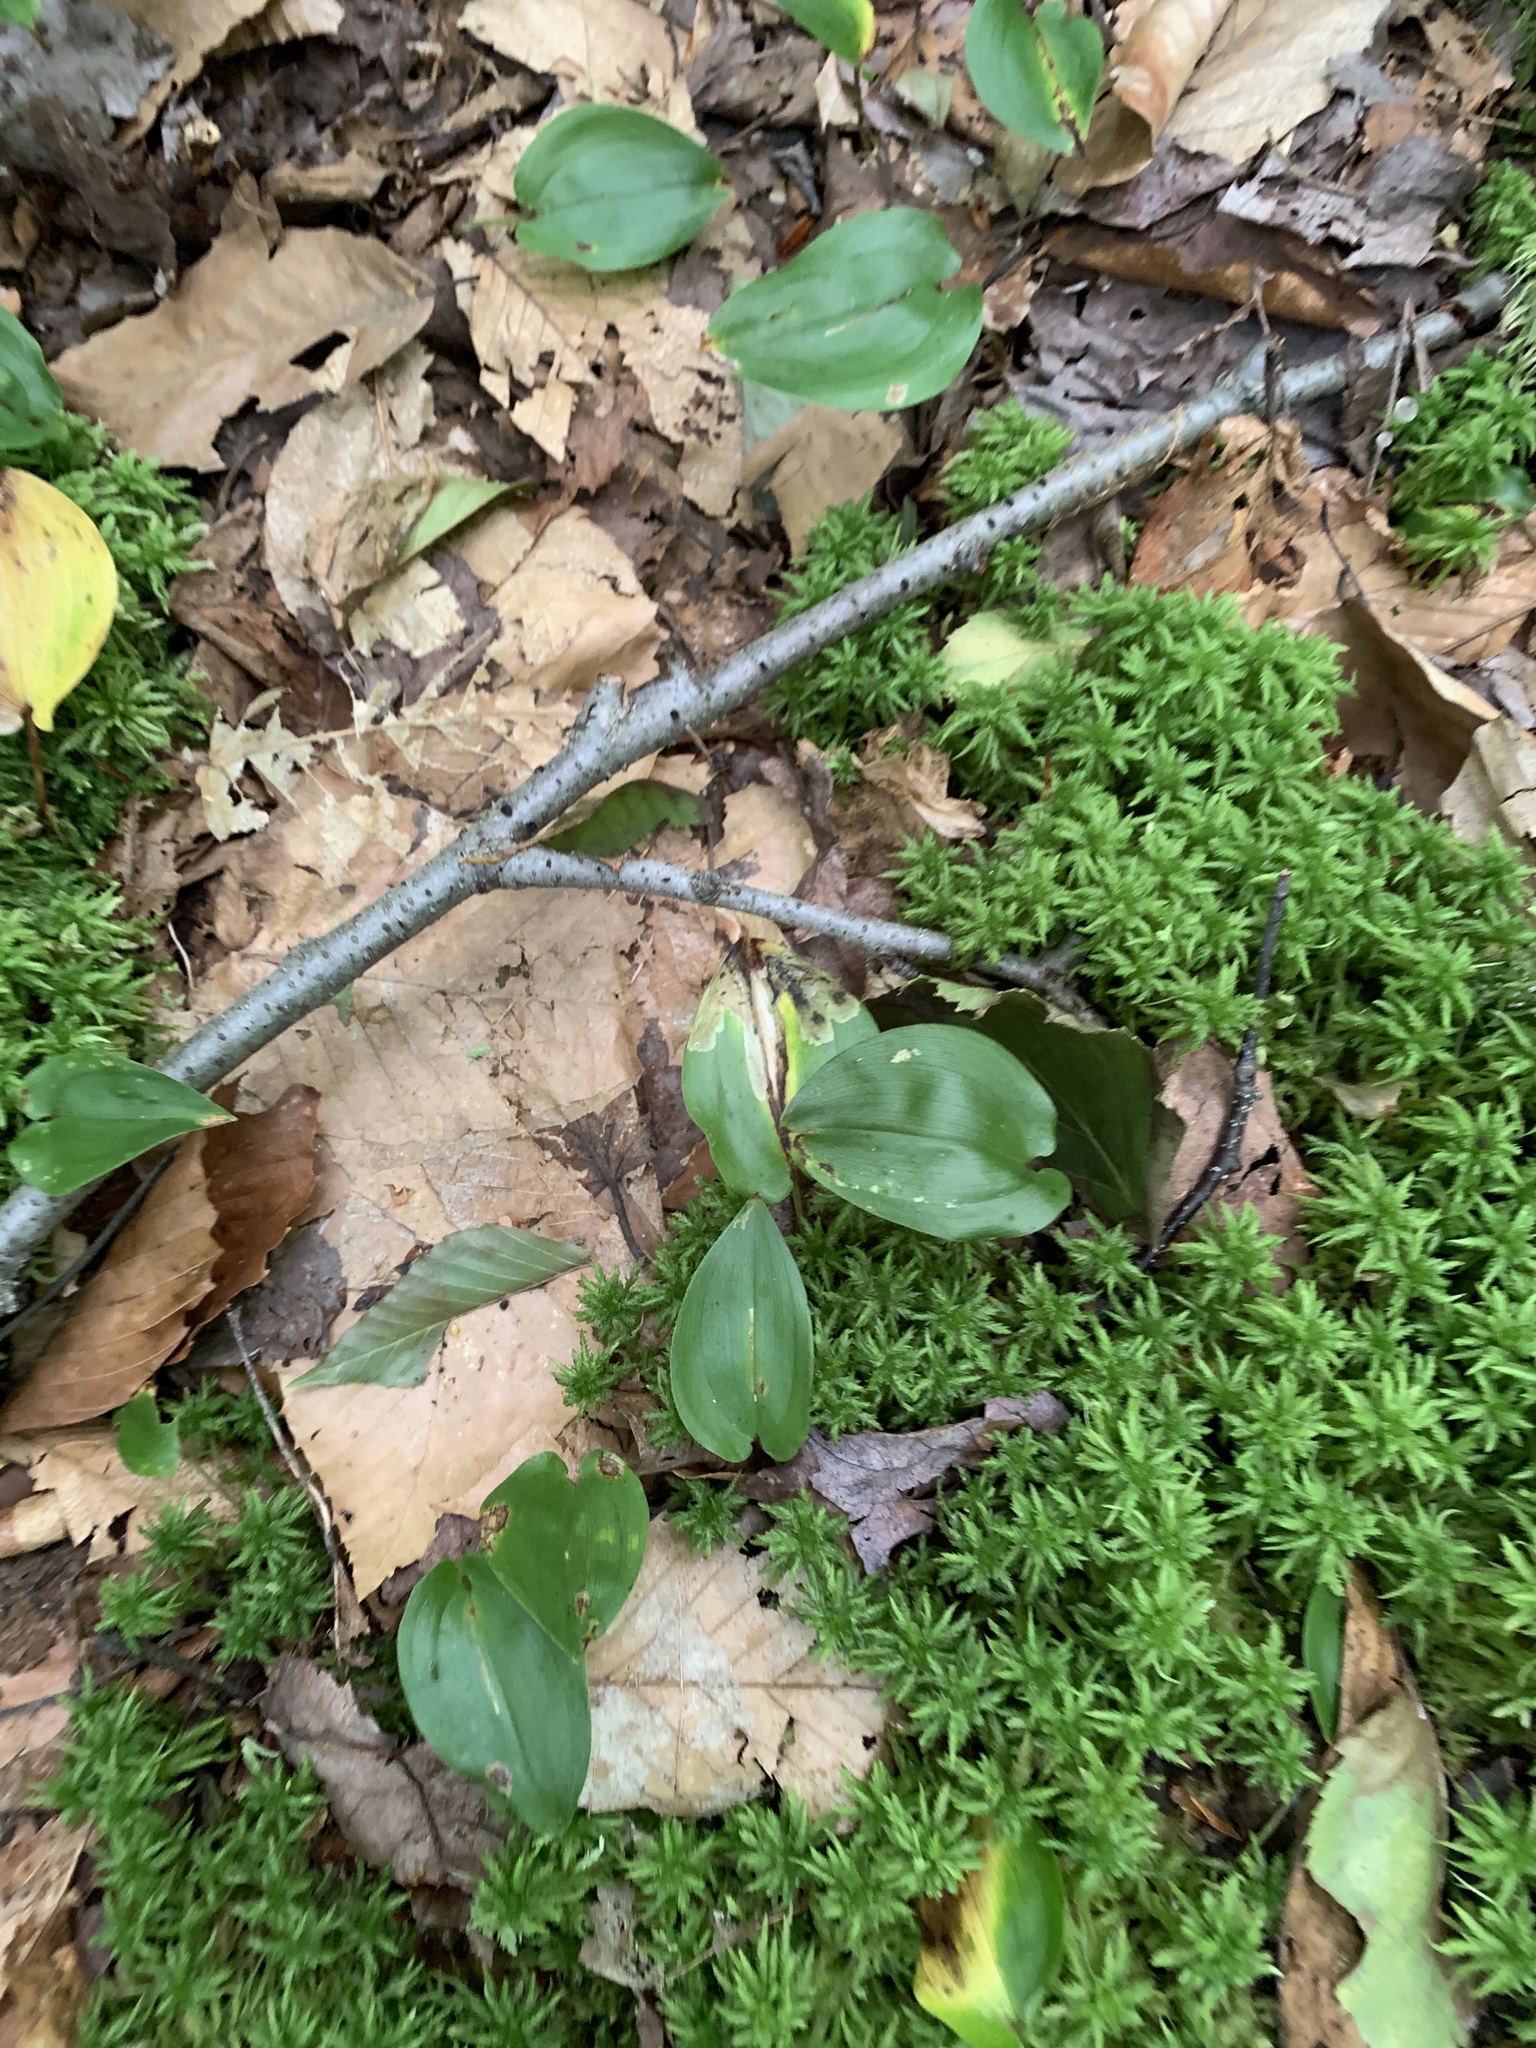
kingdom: Plantae
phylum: Tracheophyta
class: Liliopsida
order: Asparagales
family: Asparagaceae
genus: Maianthemum
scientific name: Maianthemum canadense
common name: False lily-of-the-valley
